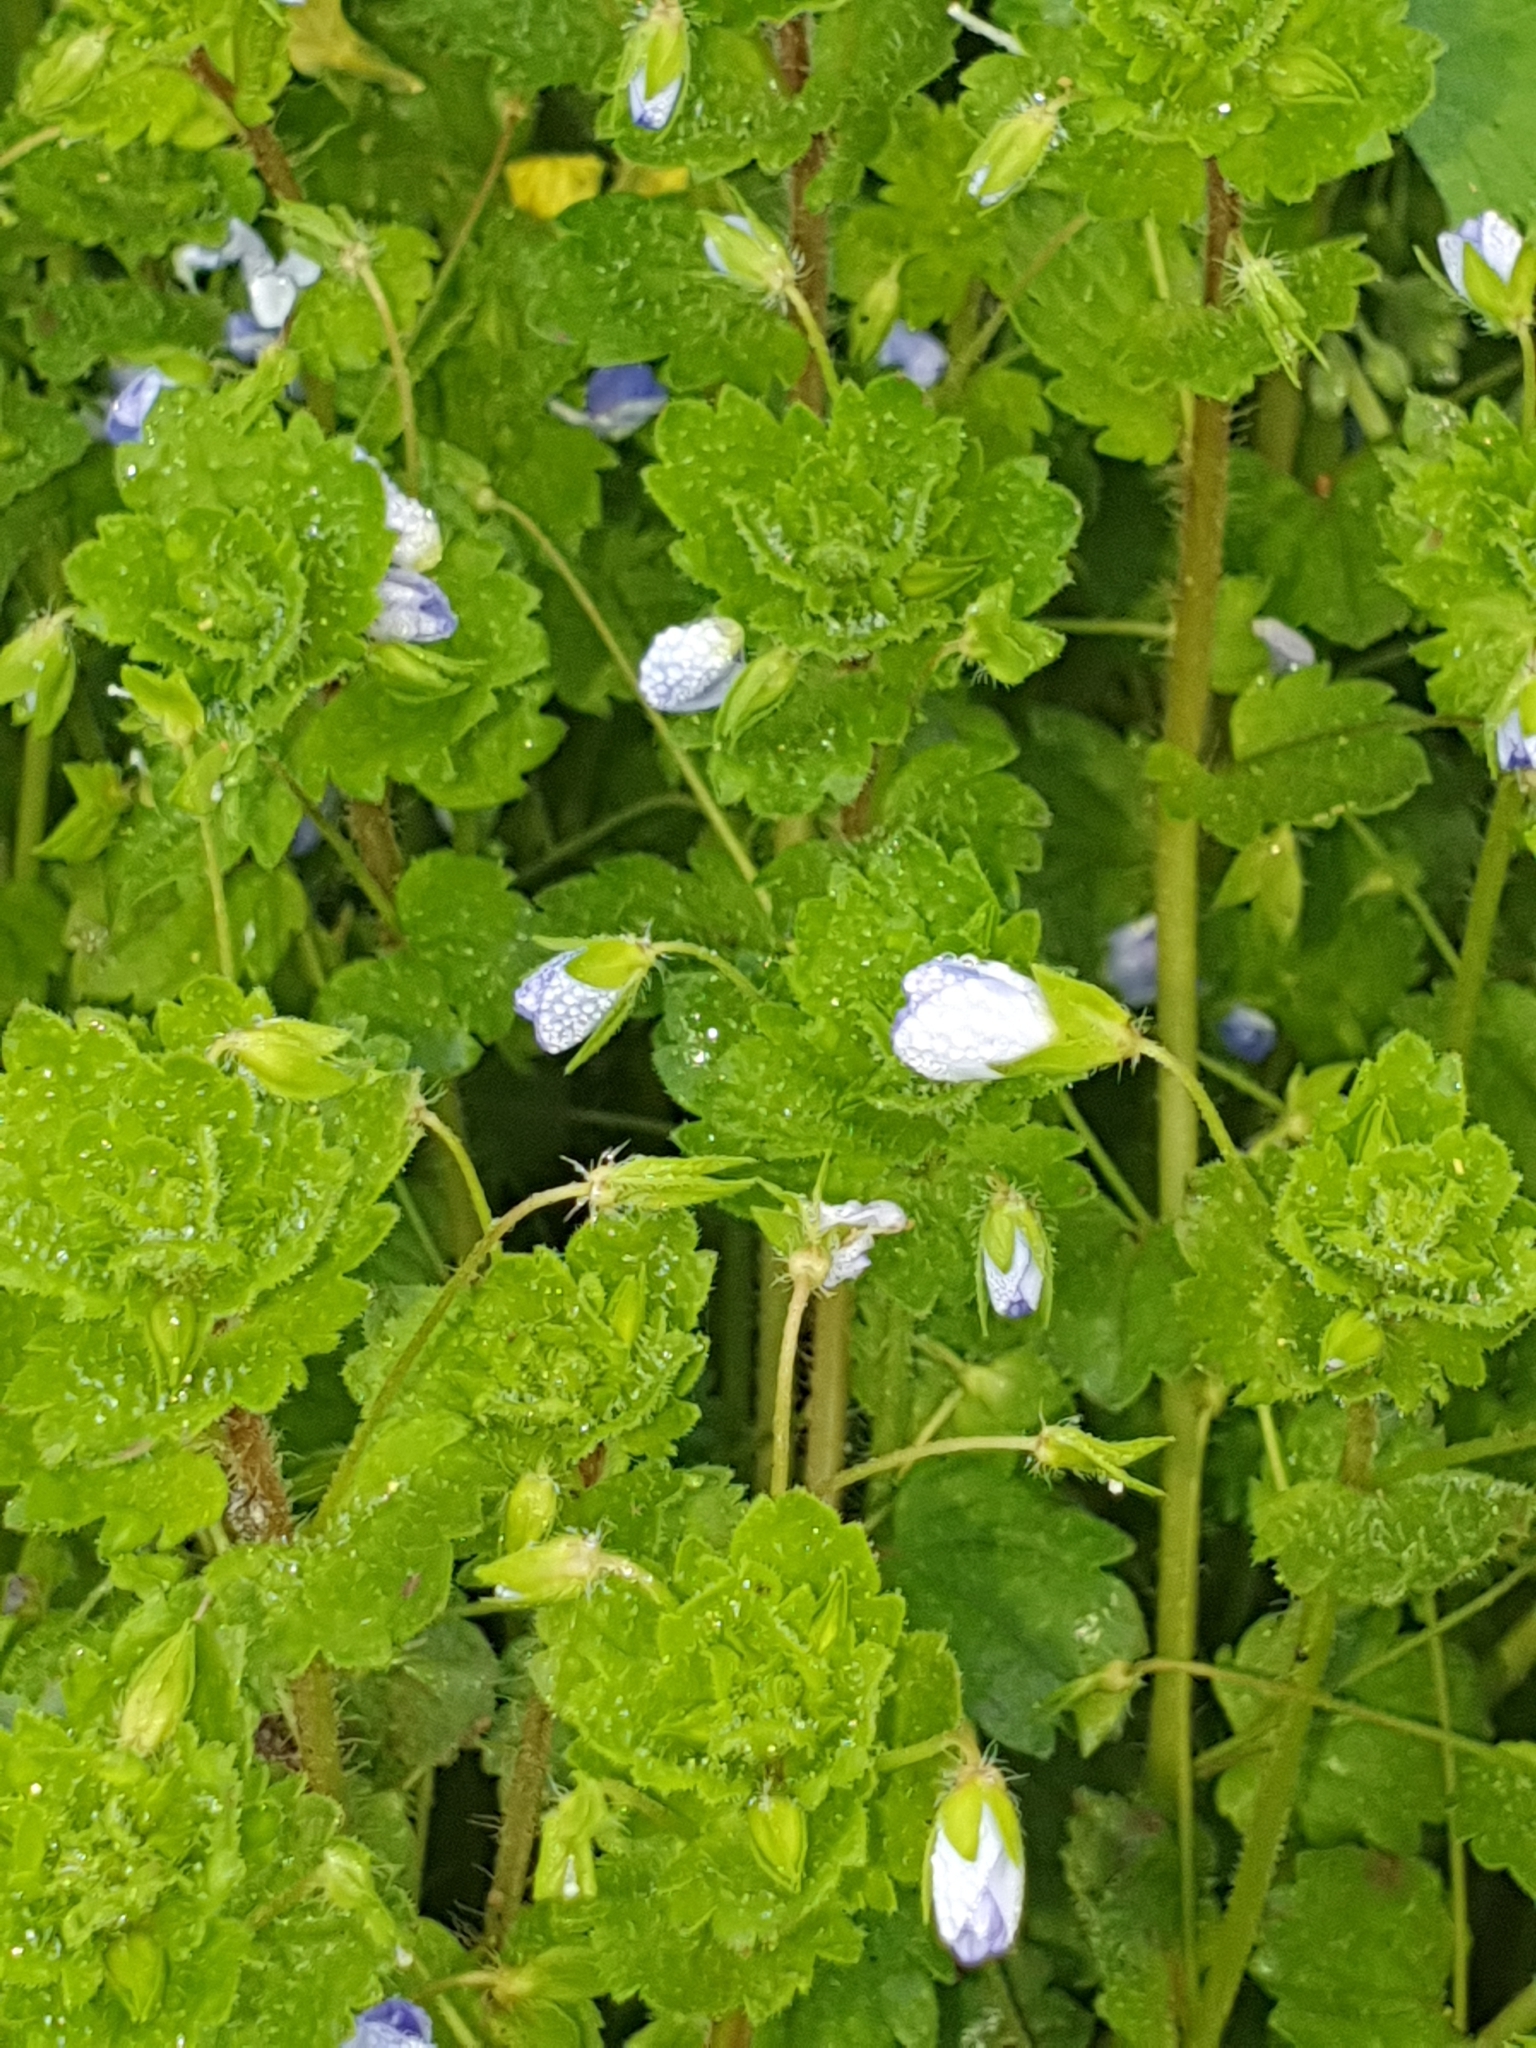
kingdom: Plantae
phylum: Tracheophyta
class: Magnoliopsida
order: Lamiales
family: Plantaginaceae
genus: Veronica
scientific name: Veronica persica
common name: Common field-speedwell
